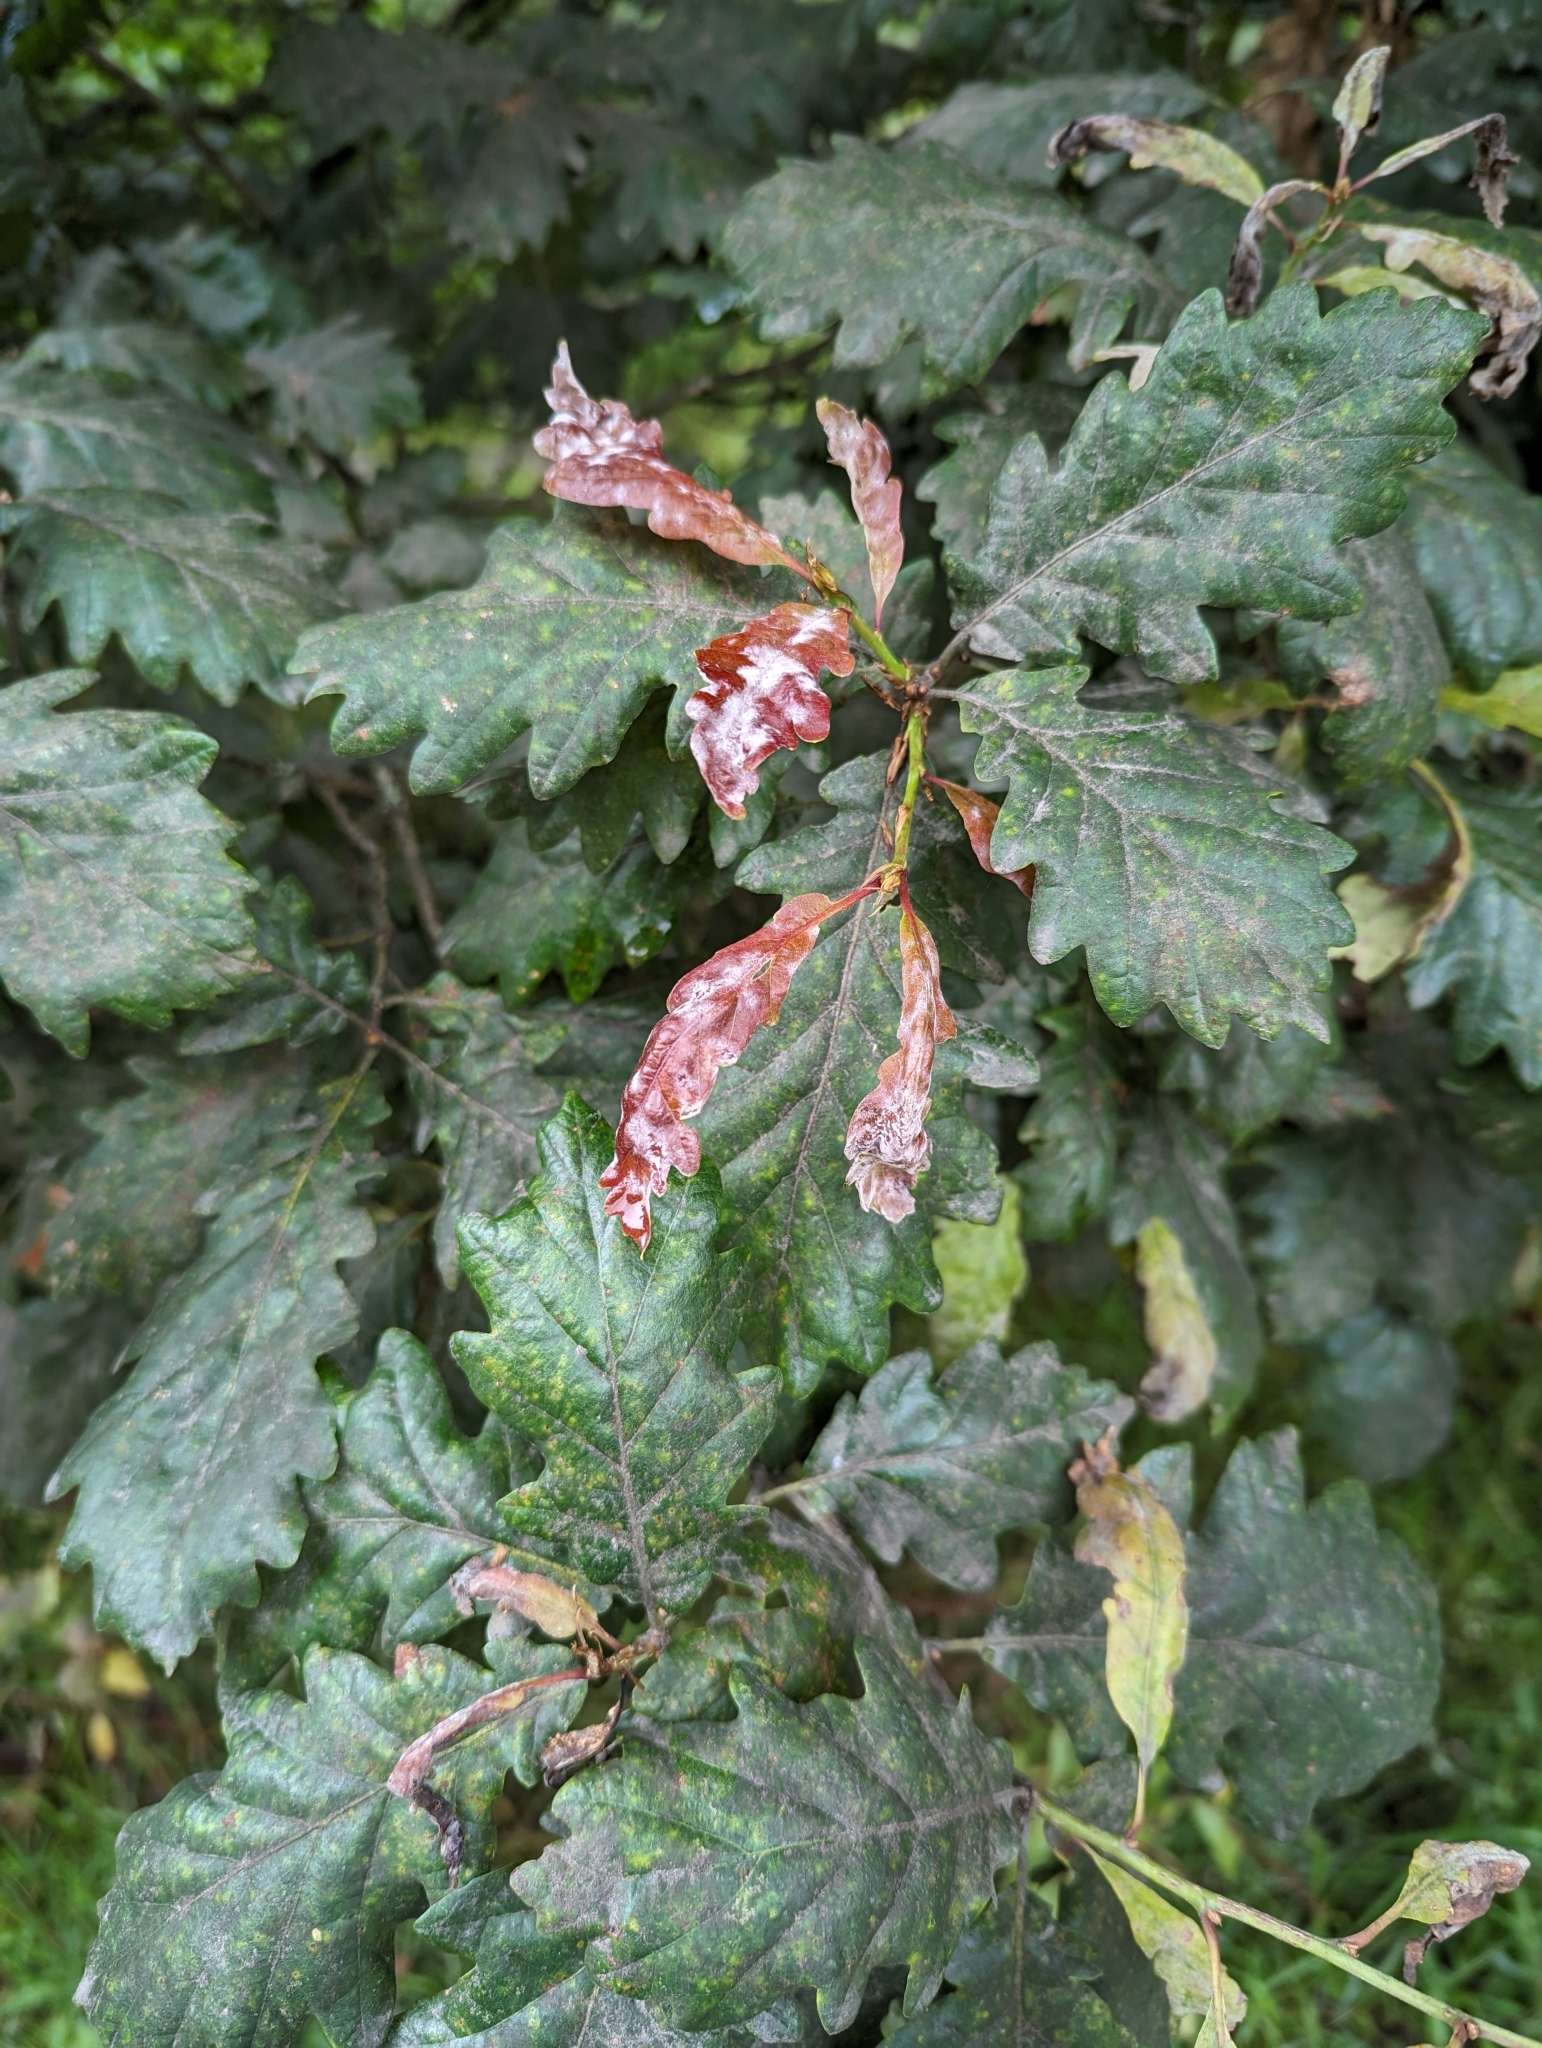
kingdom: Fungi
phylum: Ascomycota
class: Leotiomycetes
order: Helotiales
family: Erysiphaceae
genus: Erysiphe
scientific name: Erysiphe alphitoides
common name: Oak mildew
